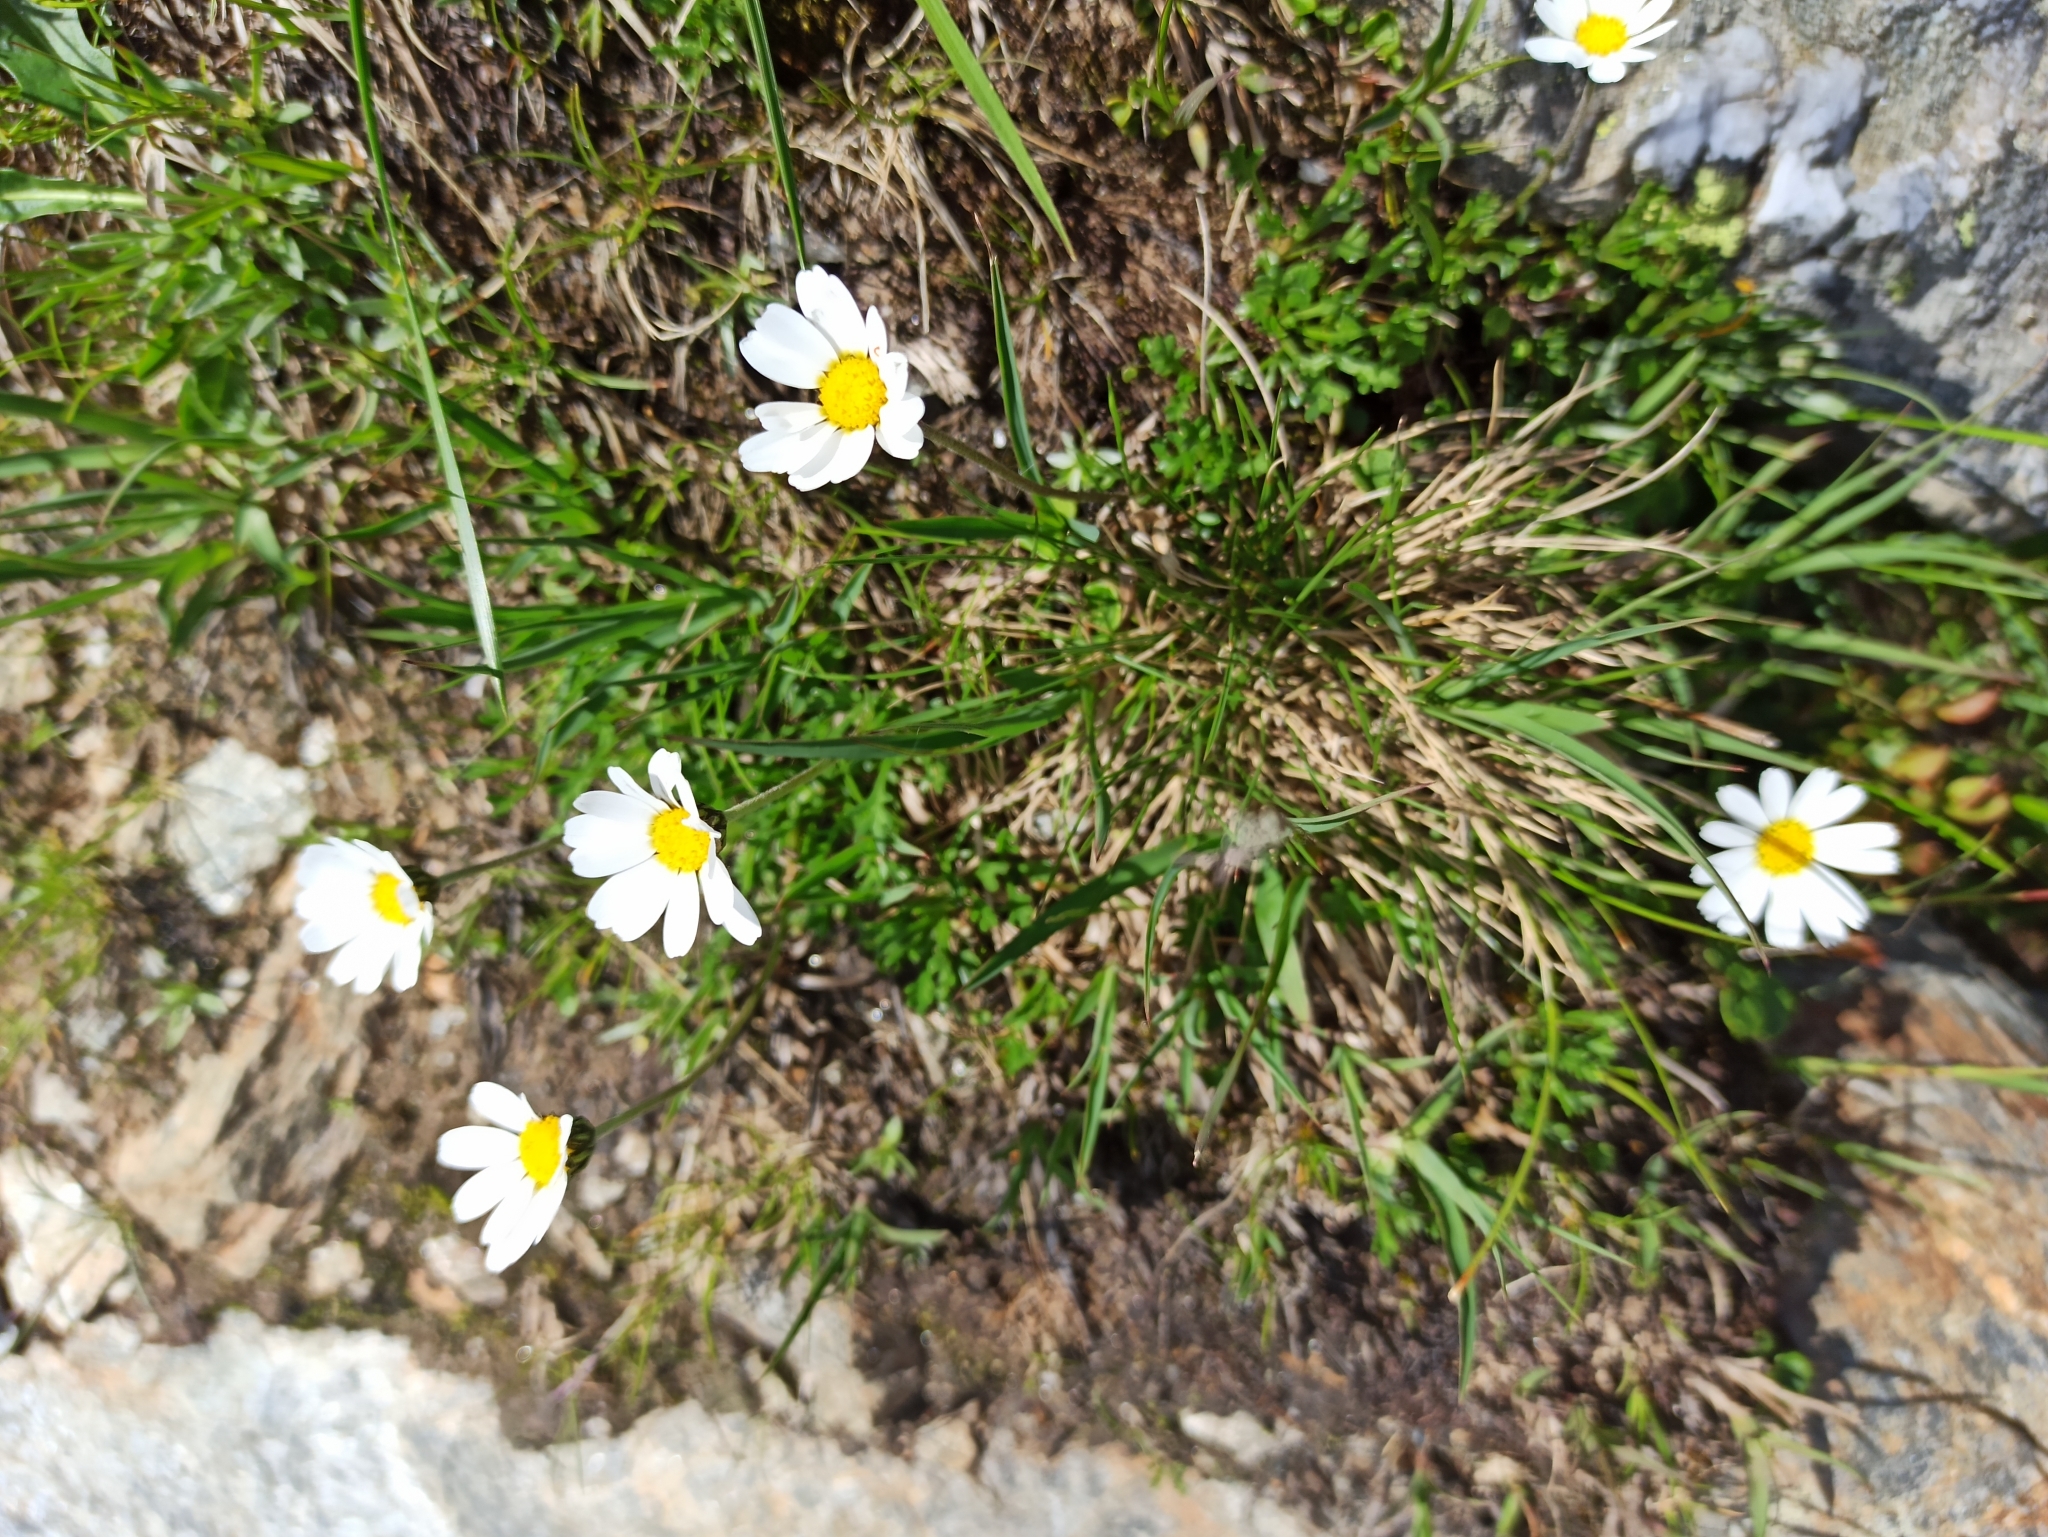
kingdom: Plantae
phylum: Tracheophyta
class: Magnoliopsida
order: Asterales
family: Asteraceae
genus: Leucanthemopsis
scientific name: Leucanthemopsis alpina
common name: Alpine moon daisy
